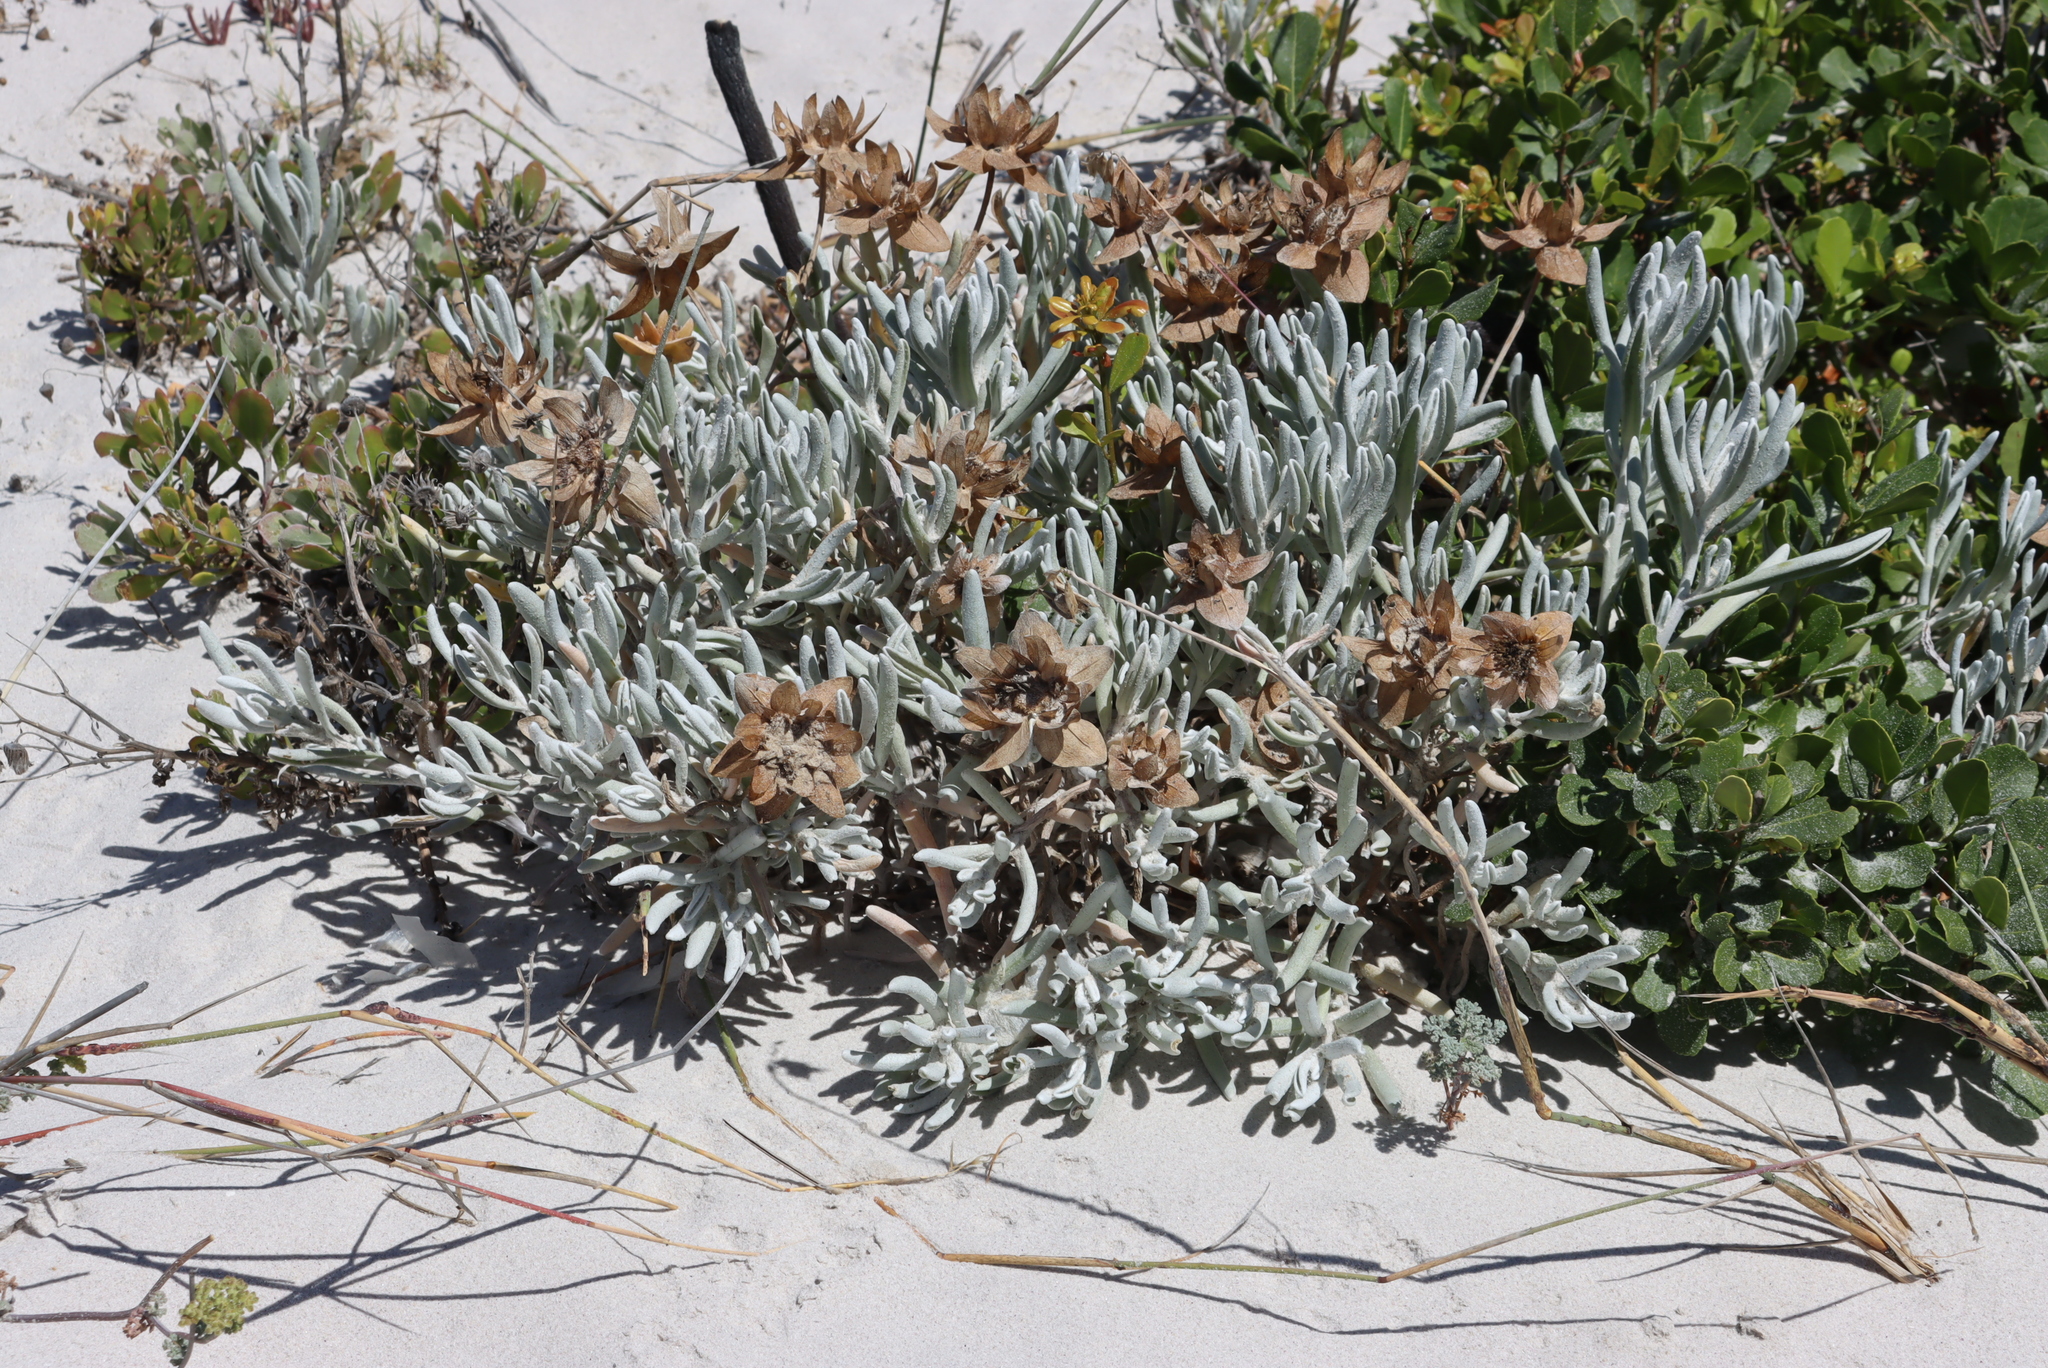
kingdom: Plantae
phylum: Tracheophyta
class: Magnoliopsida
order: Asterales
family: Asteraceae
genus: Didelta
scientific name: Didelta carnosa
